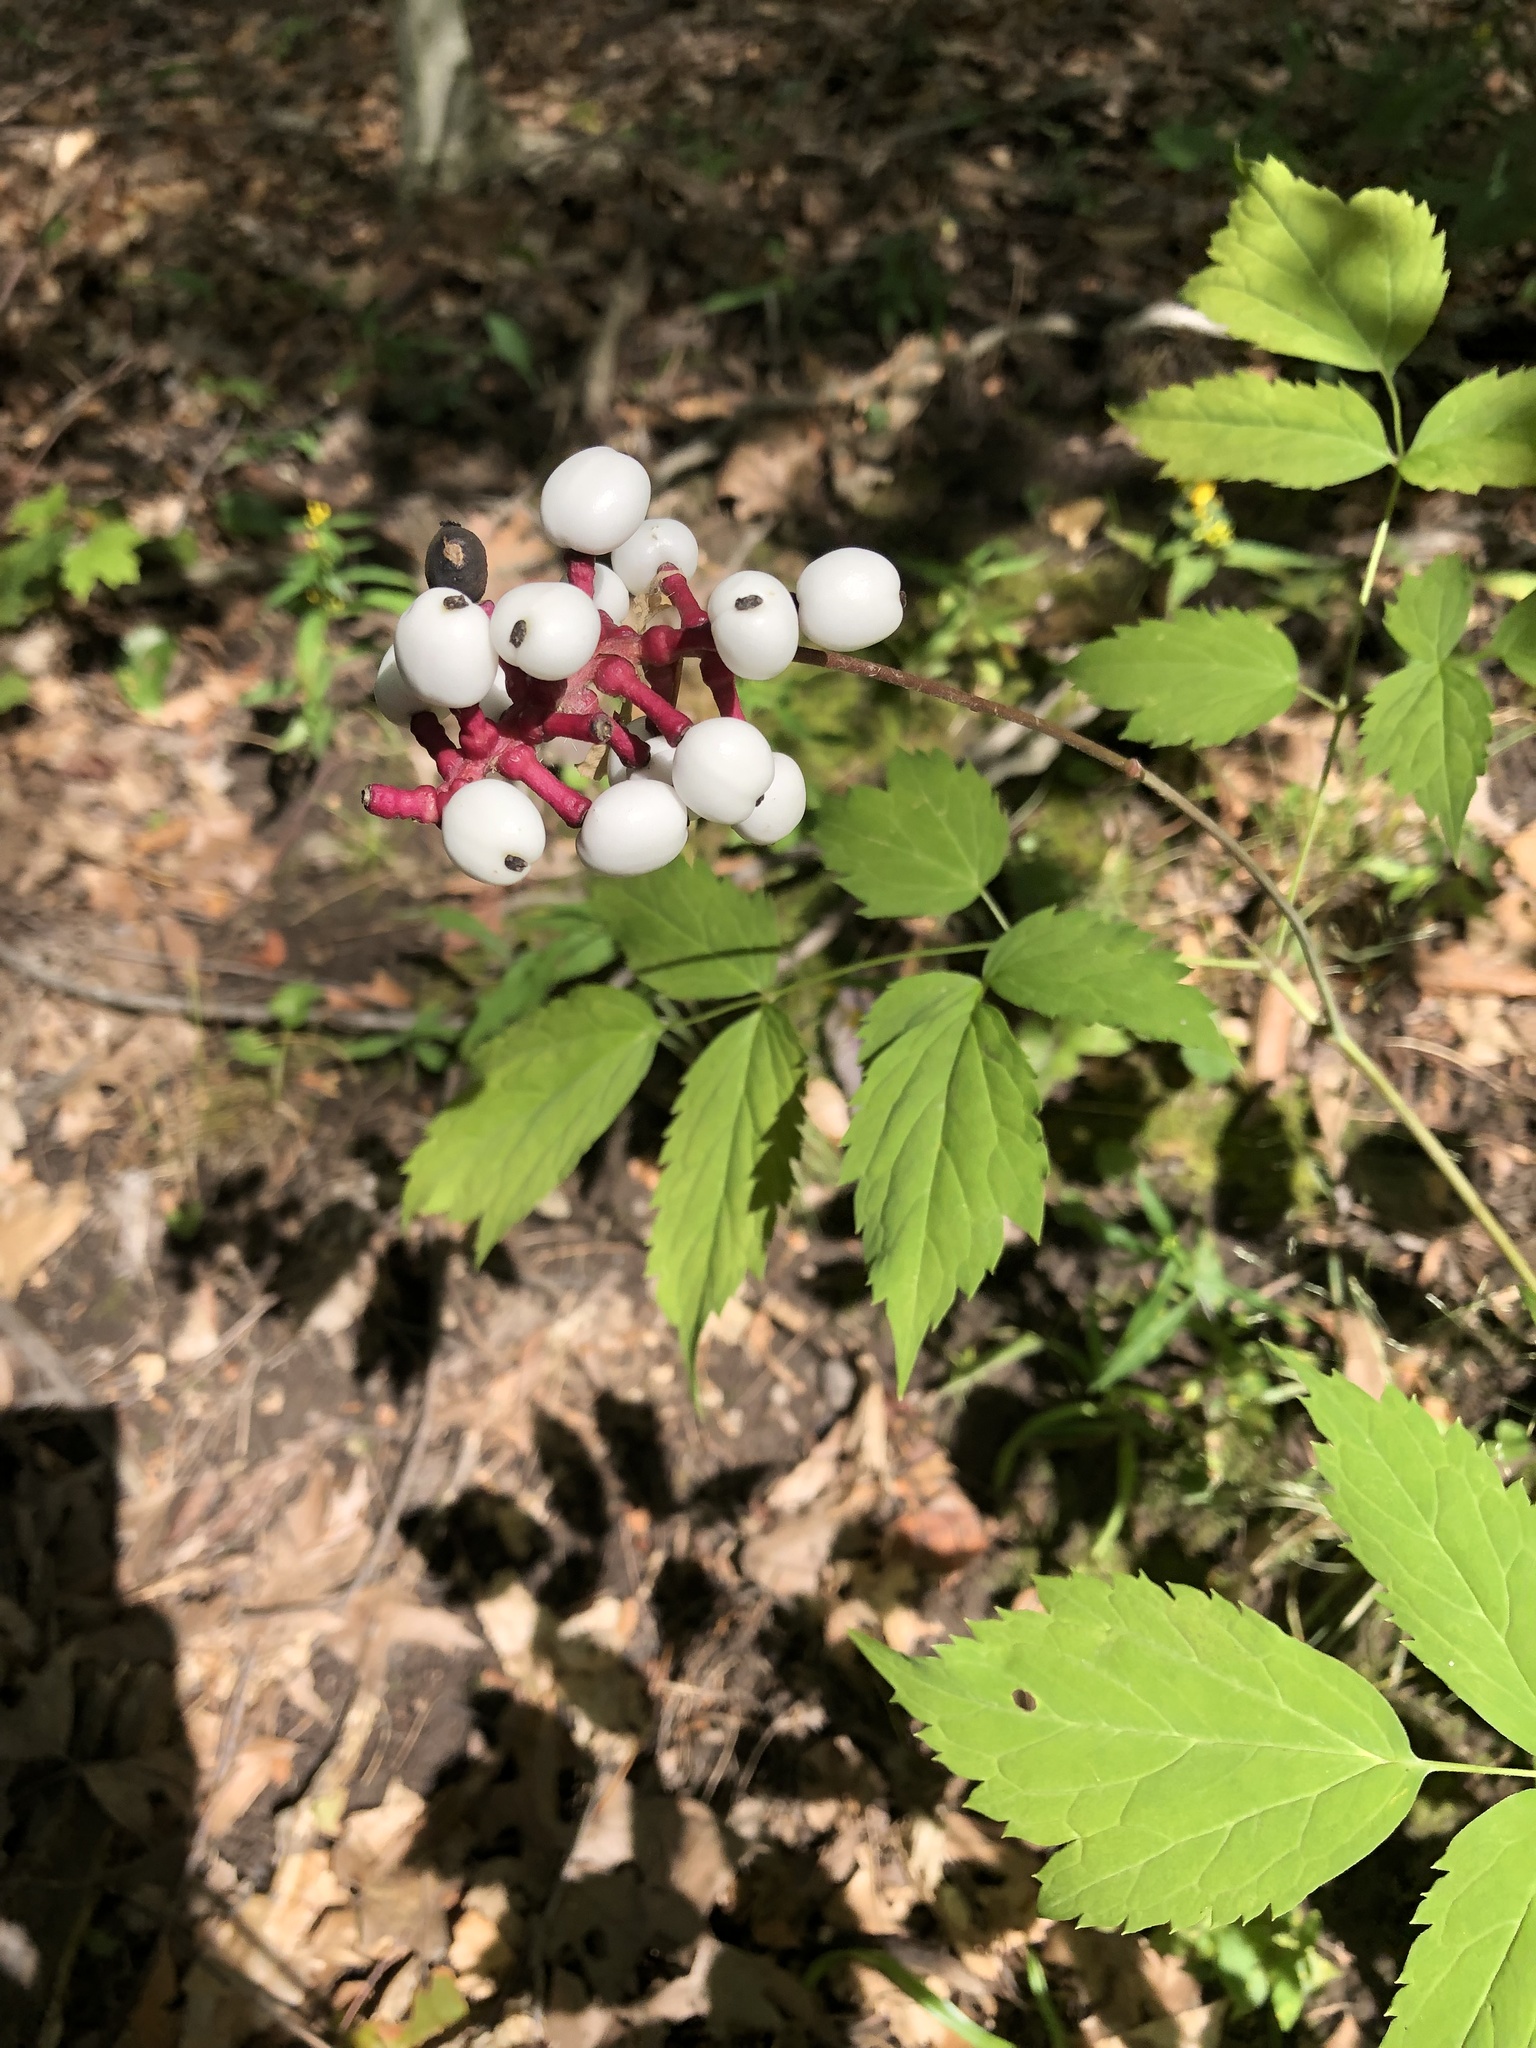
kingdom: Plantae
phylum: Tracheophyta
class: Magnoliopsida
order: Ranunculales
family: Ranunculaceae
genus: Actaea
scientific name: Actaea pachypoda
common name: Doll's-eyes
